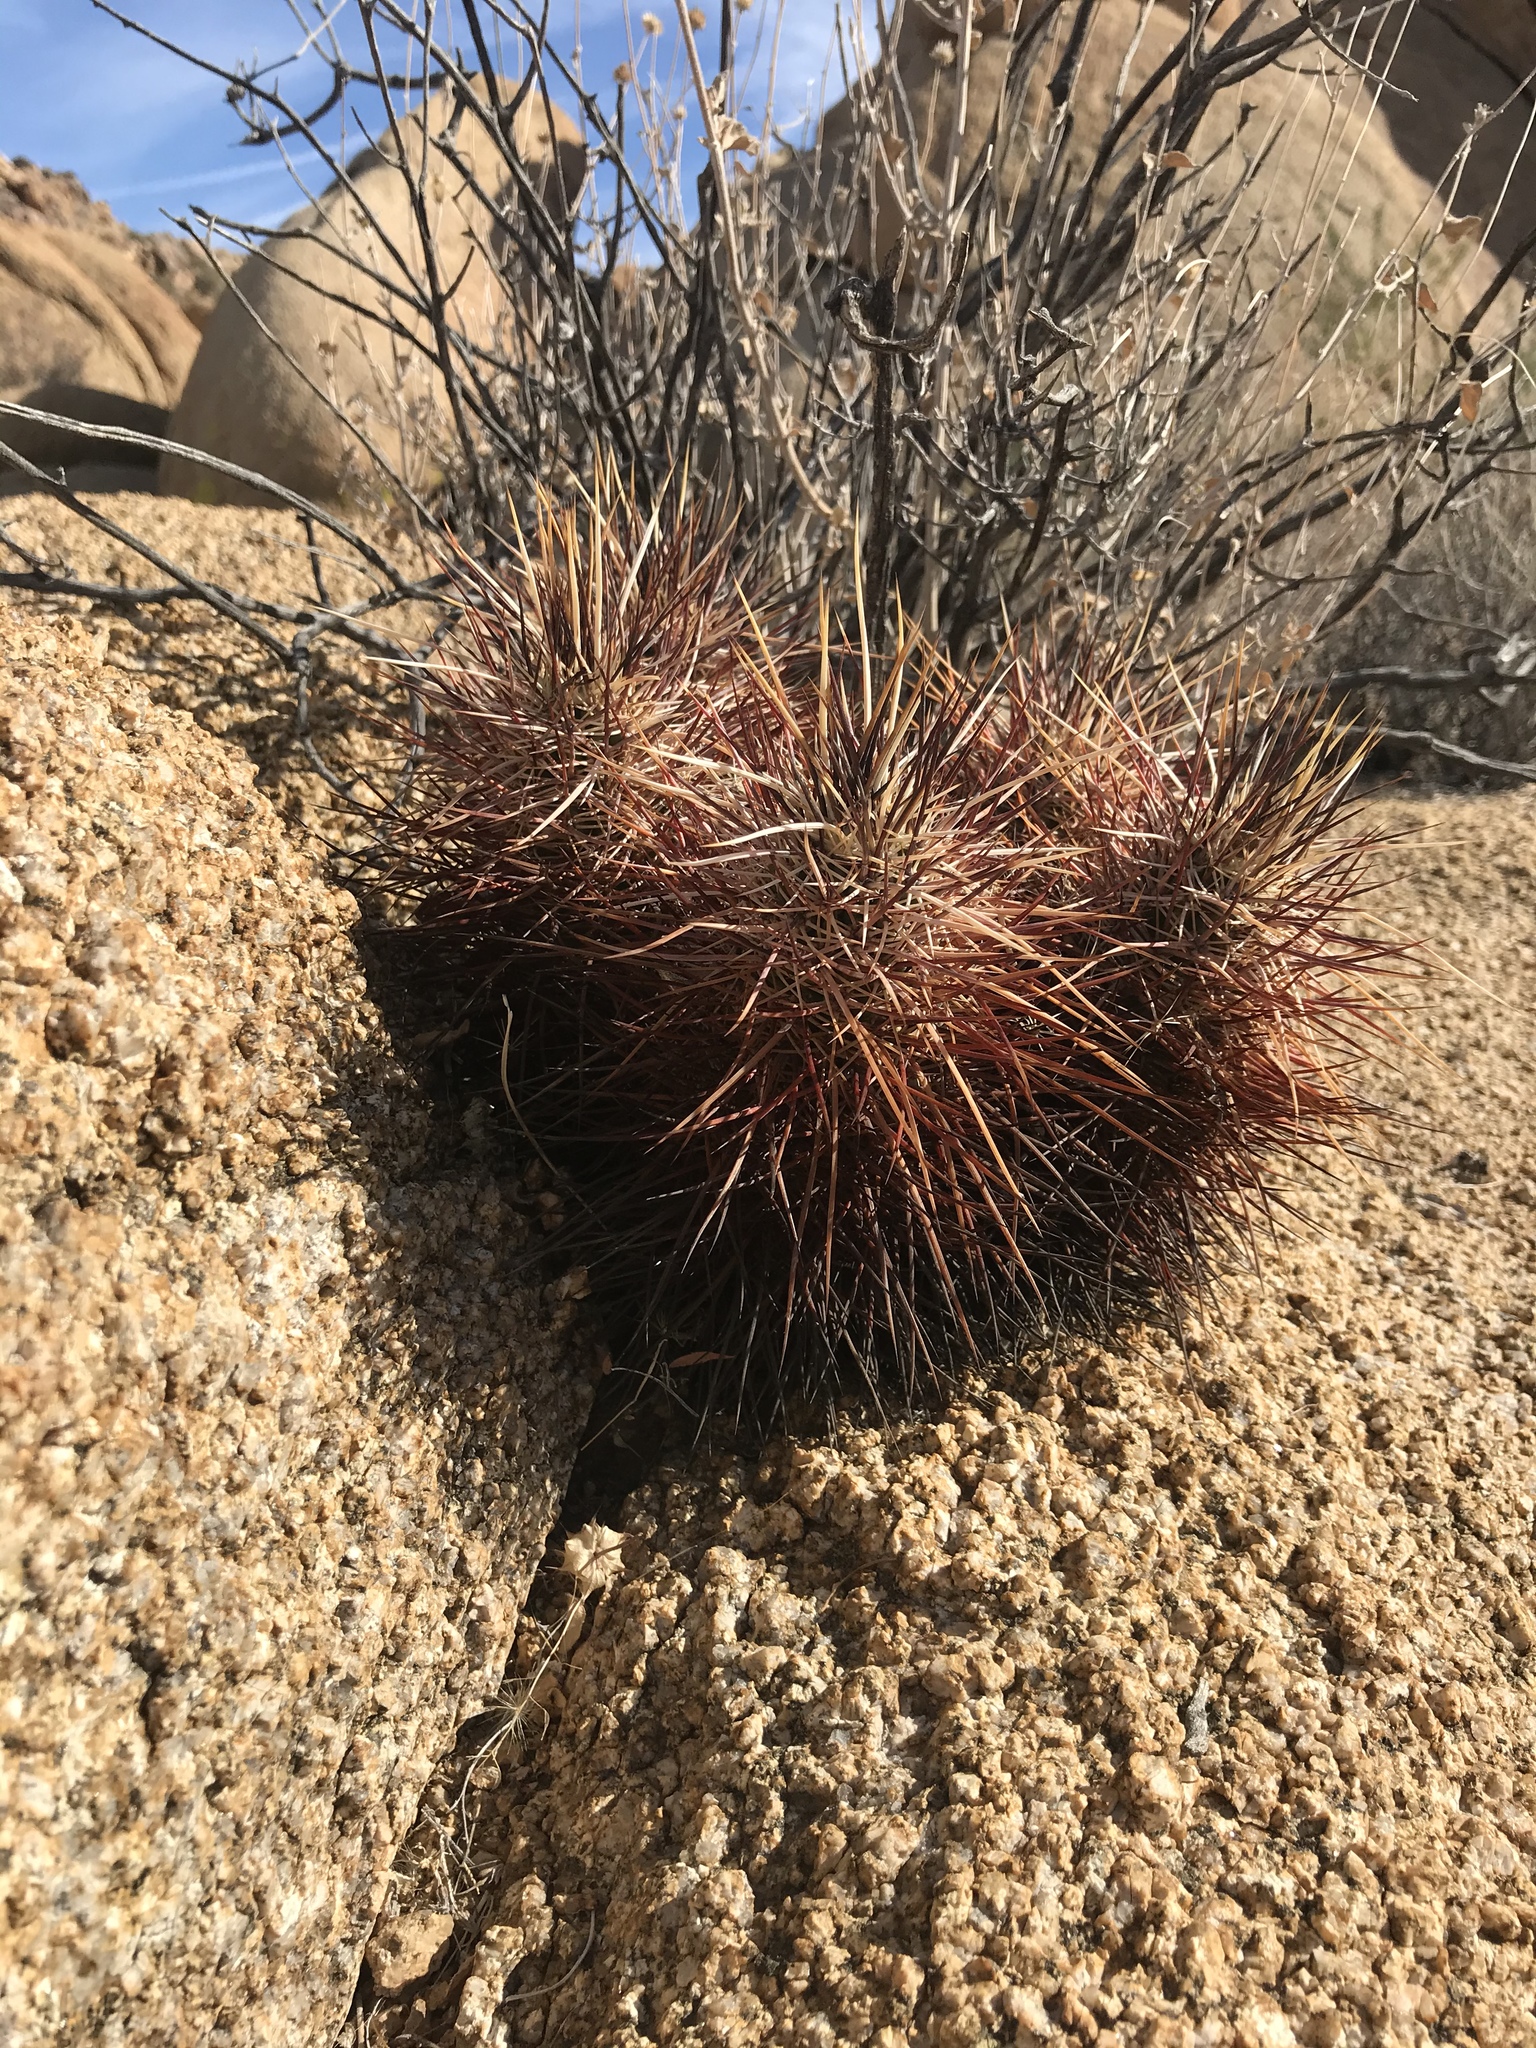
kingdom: Plantae
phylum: Tracheophyta
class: Magnoliopsida
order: Caryophyllales
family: Cactaceae
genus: Echinocereus
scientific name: Echinocereus engelmannii
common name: Engelmann's hedgehog cactus
